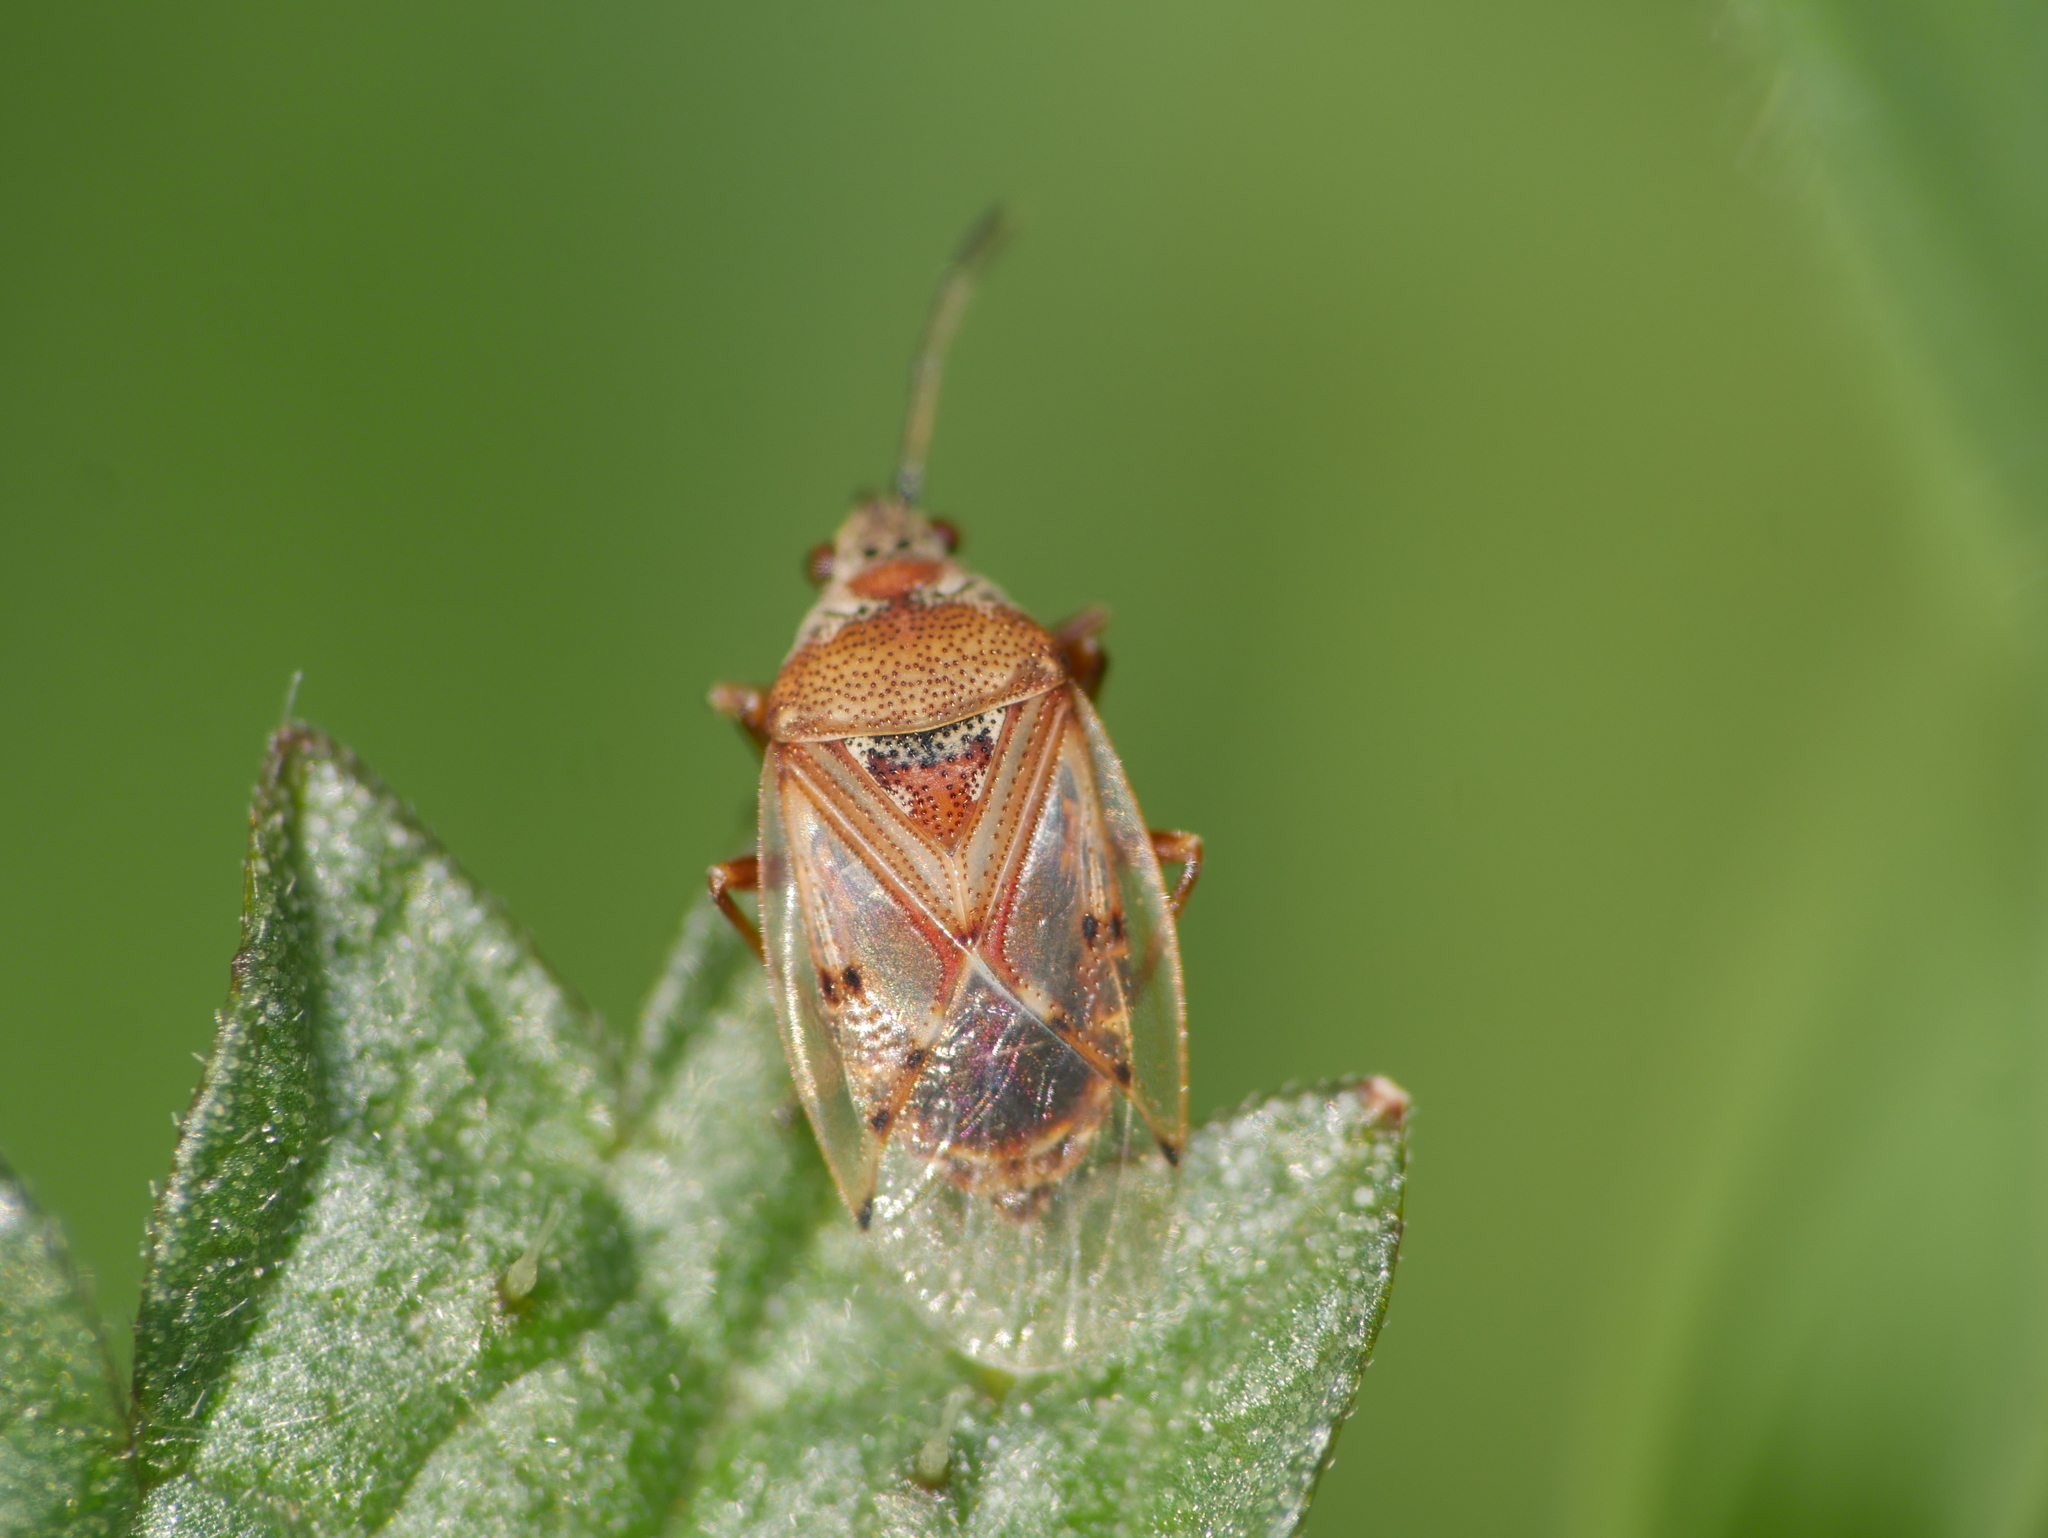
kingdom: Animalia
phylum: Arthropoda
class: Insecta
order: Hemiptera
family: Lygaeidae
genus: Kleidocerys
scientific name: Kleidocerys resedae
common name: Birch catkin bug
